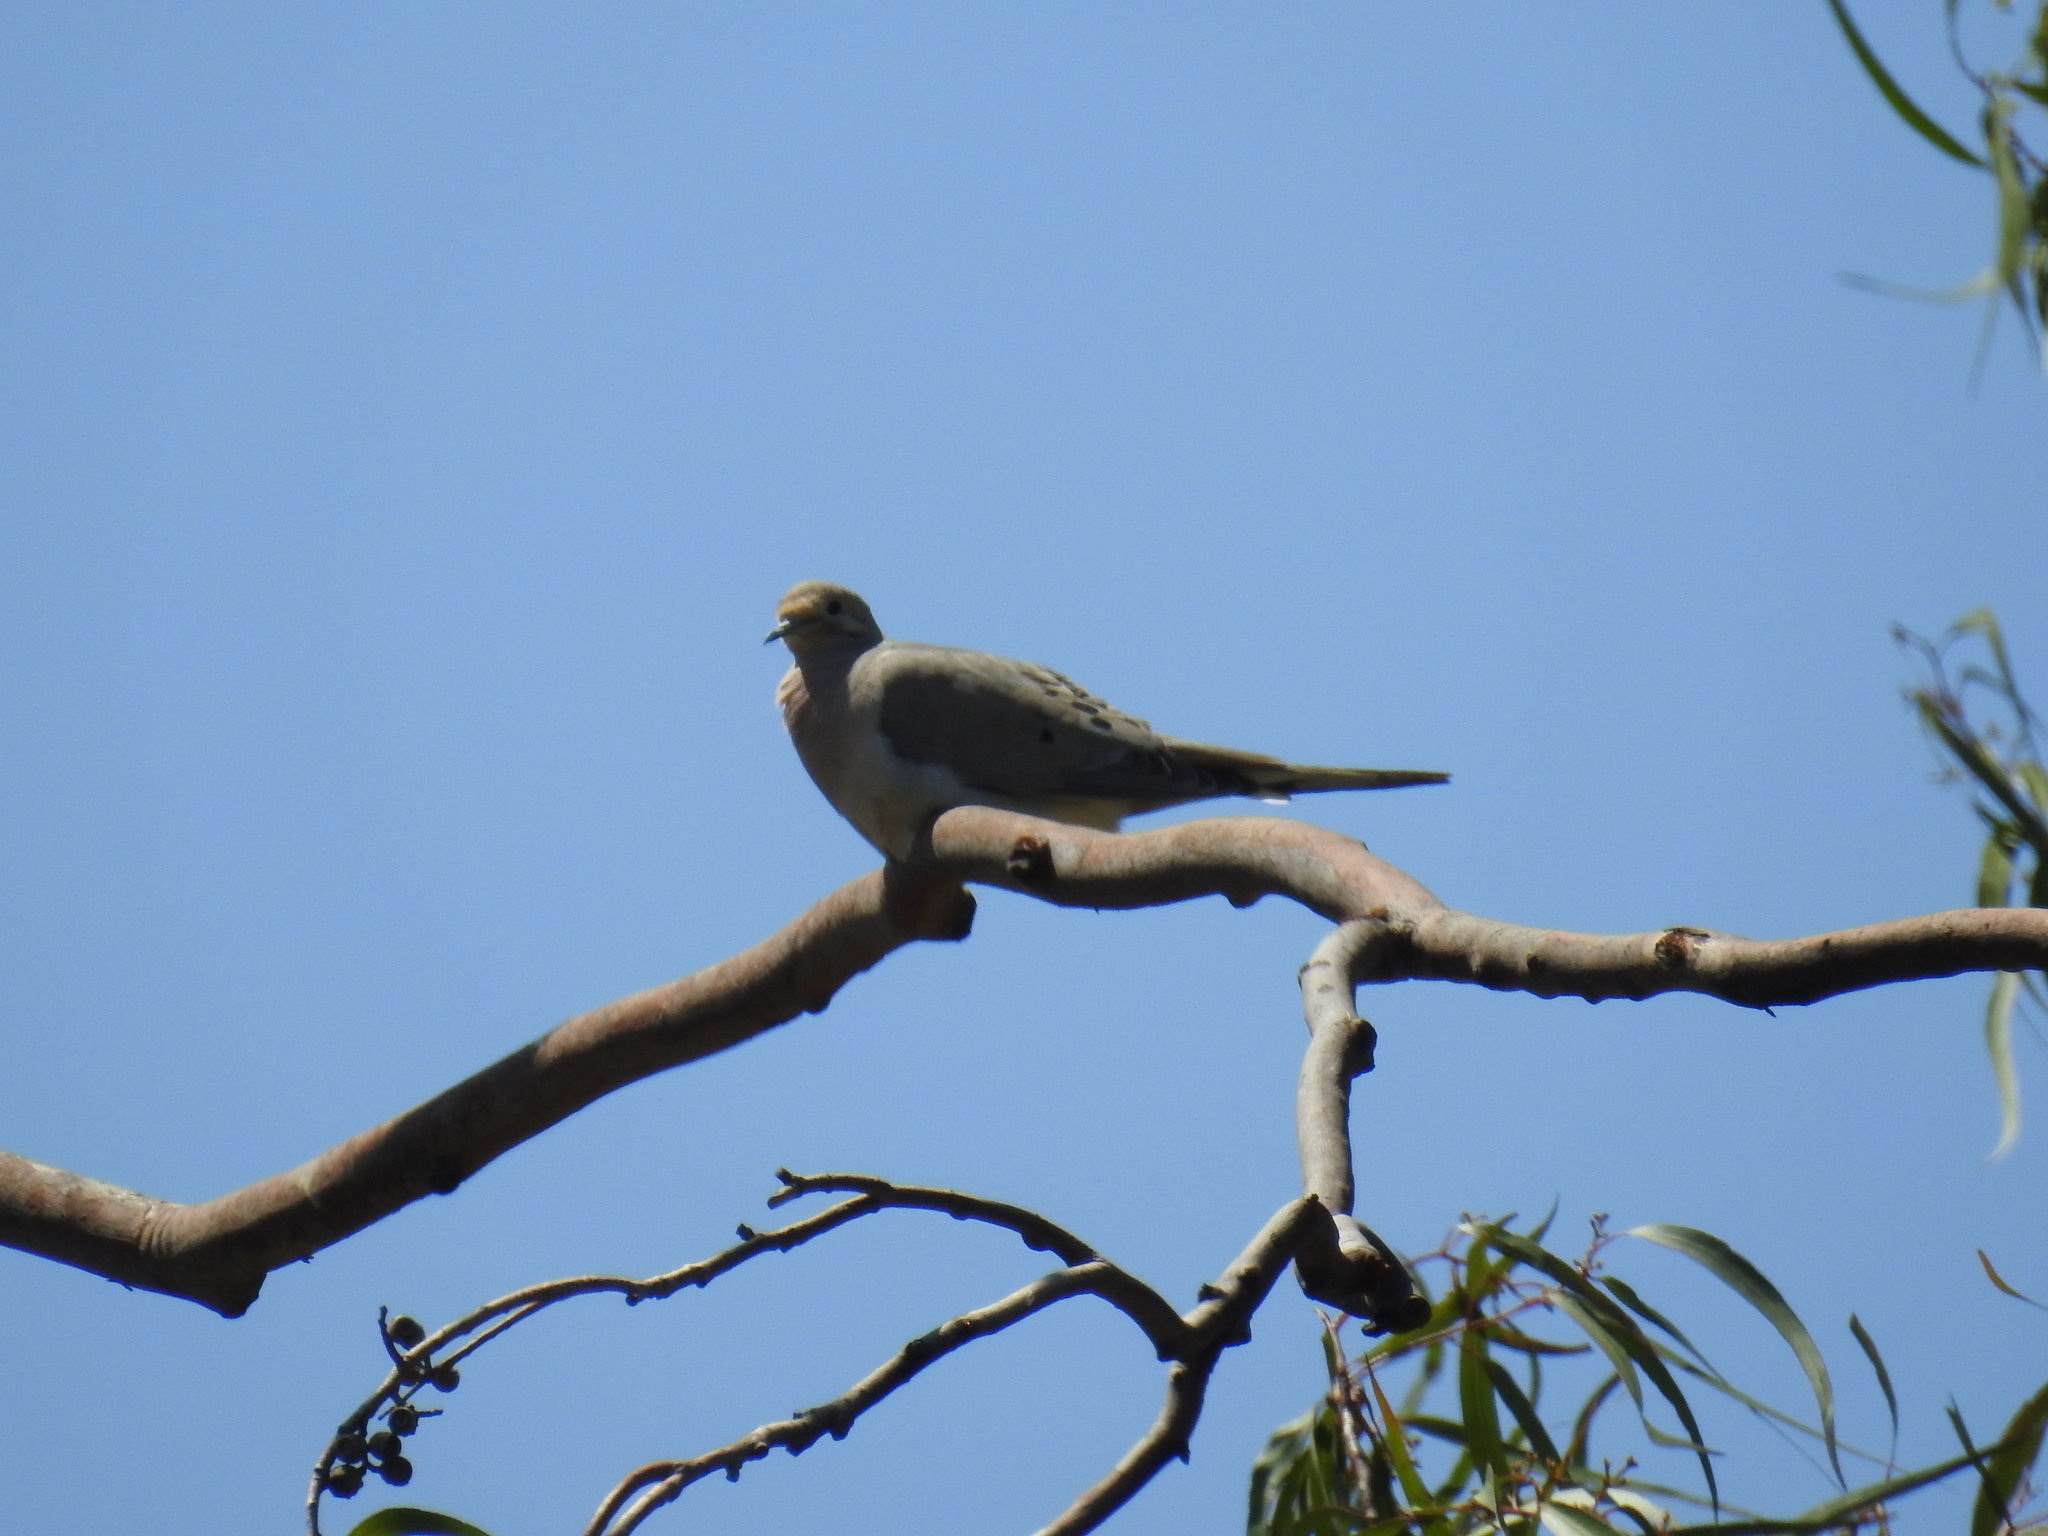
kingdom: Animalia
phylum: Chordata
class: Aves
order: Columbiformes
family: Columbidae
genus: Zenaida
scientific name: Zenaida macroura
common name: Mourning dove
